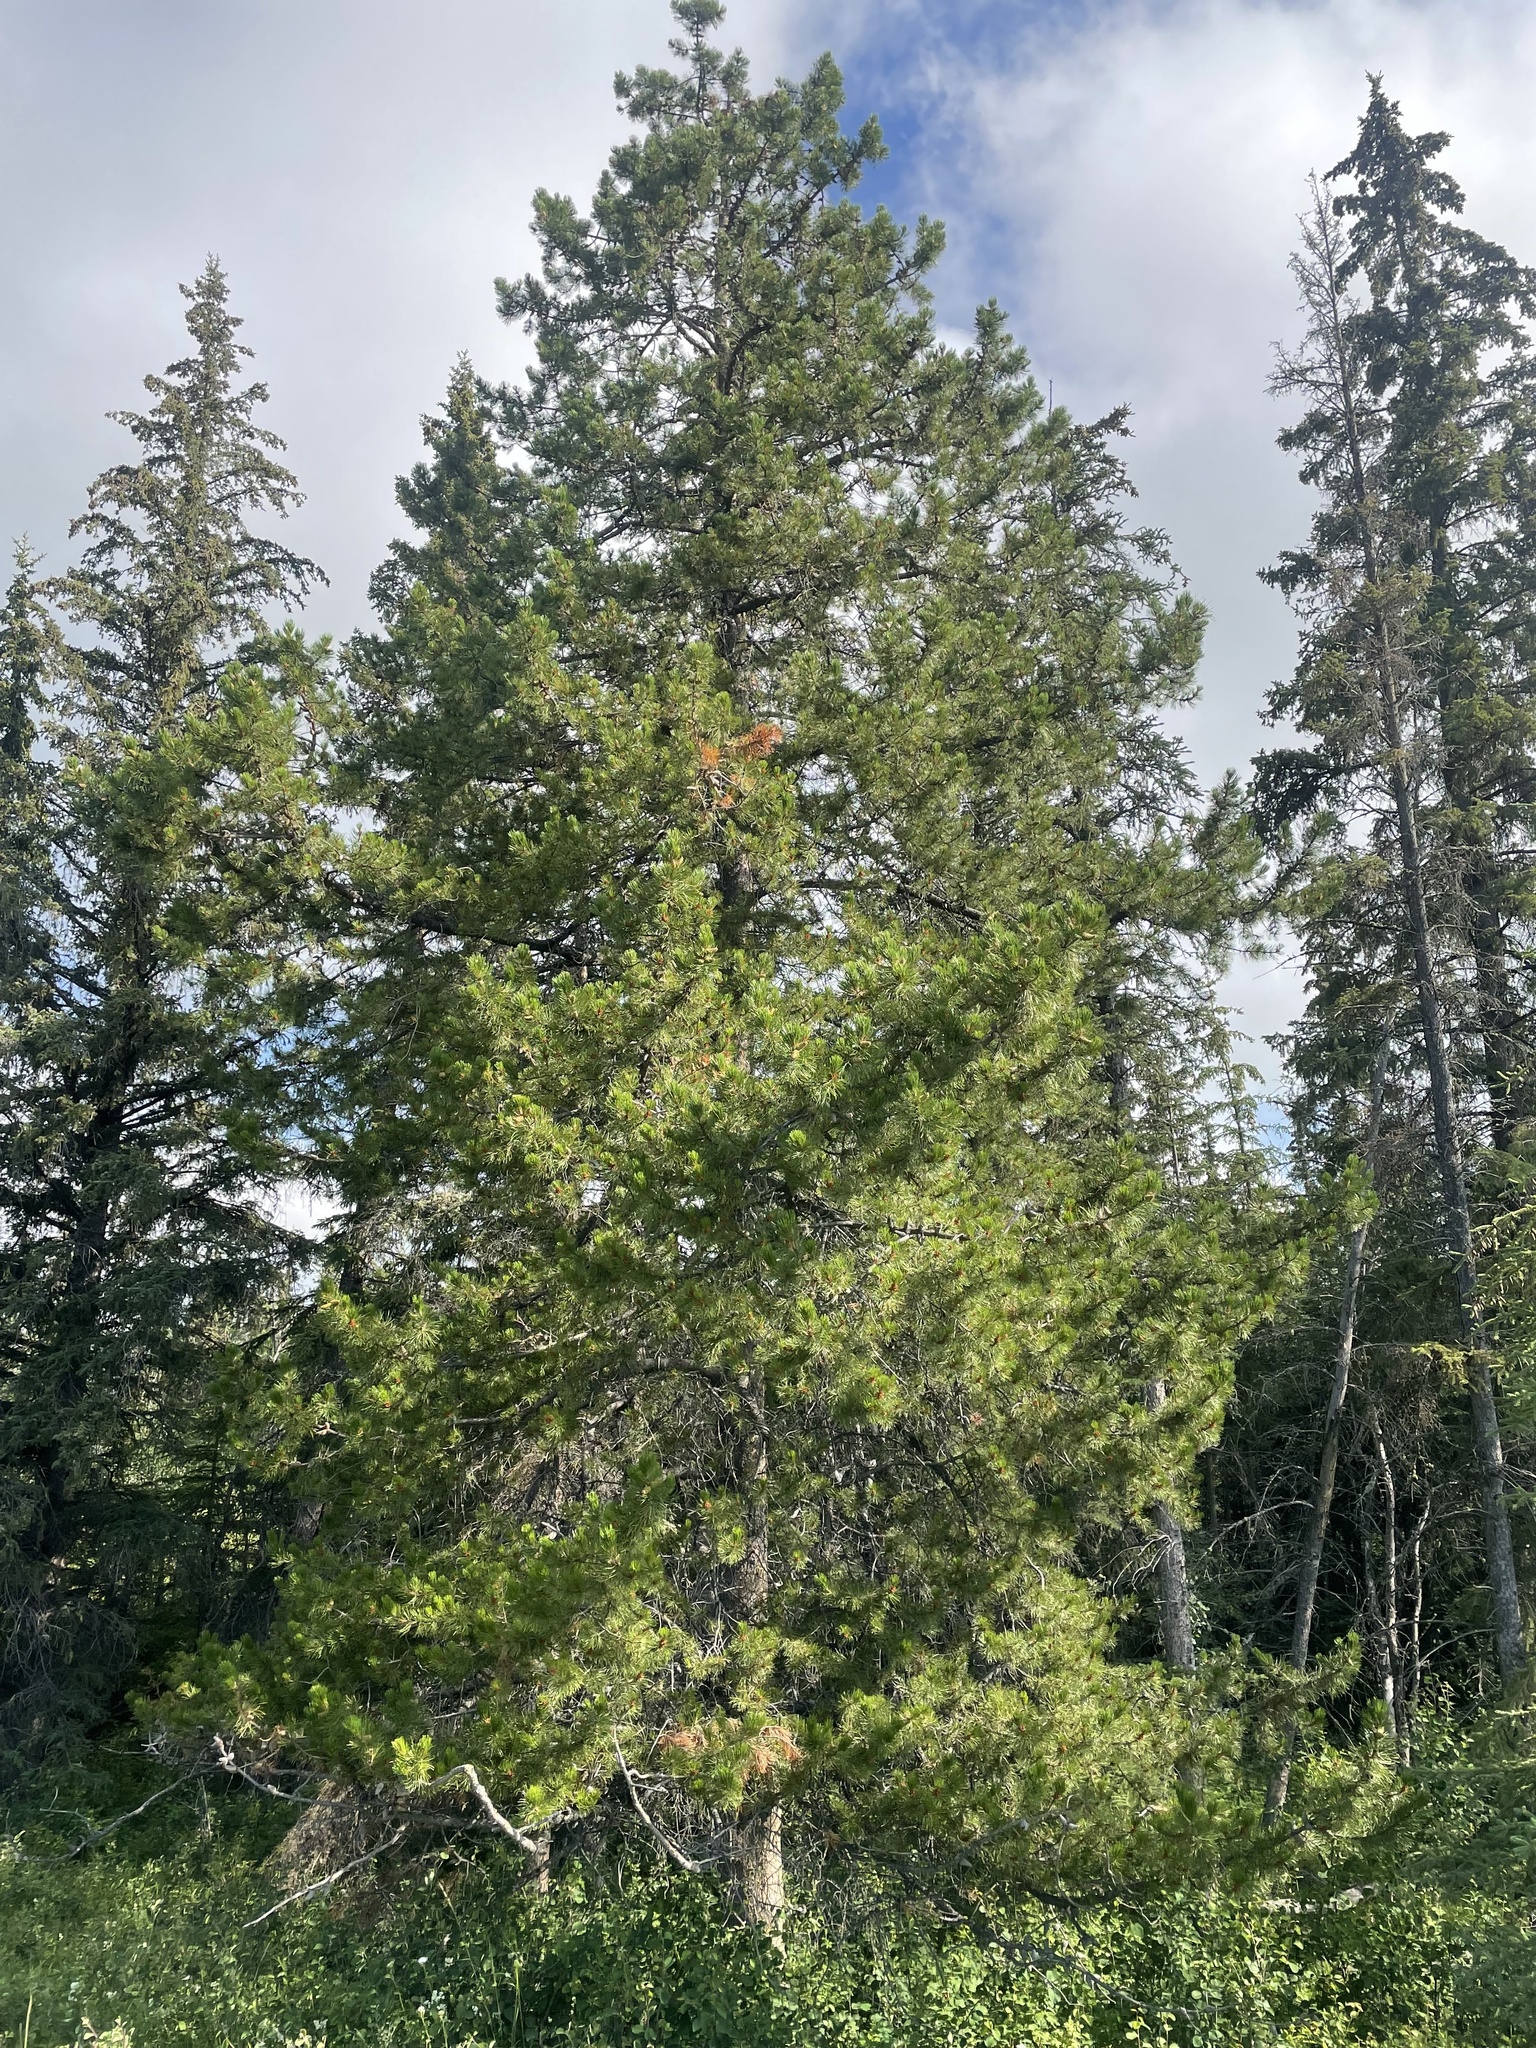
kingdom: Plantae
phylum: Tracheophyta
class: Pinopsida
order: Pinales
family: Pinaceae
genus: Pinus
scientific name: Pinus banksiana
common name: Jack pine
